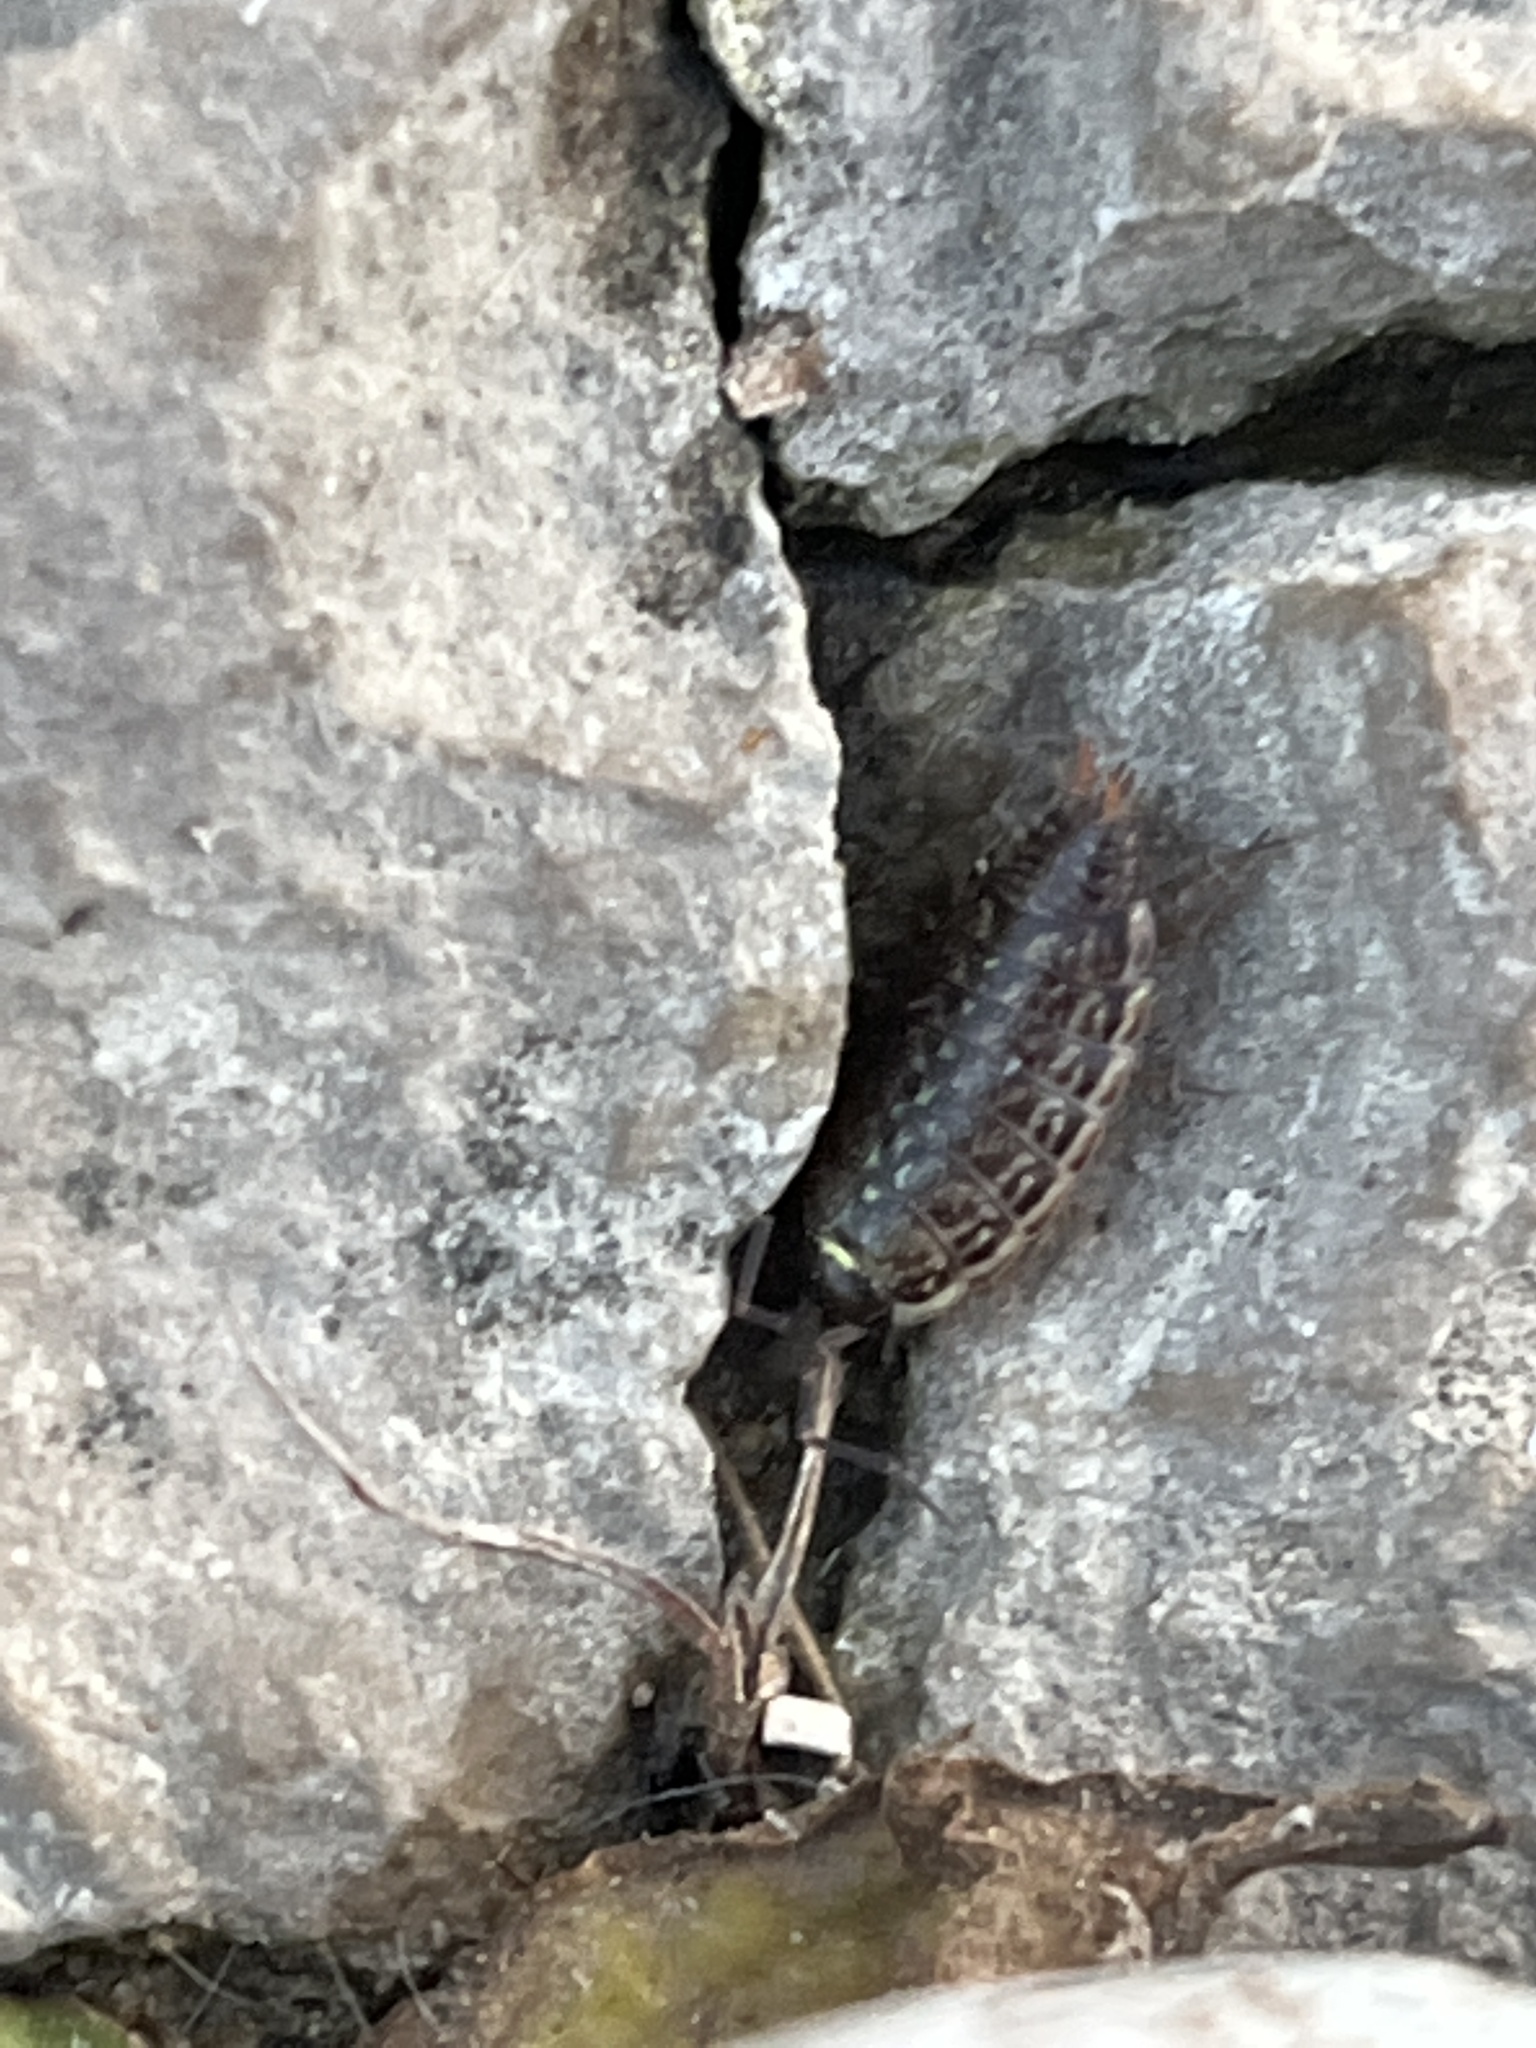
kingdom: Animalia
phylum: Arthropoda
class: Malacostraca
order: Isopoda
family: Philosciidae
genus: Philoscia
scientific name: Philoscia muscorum
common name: Common striped woodlouse
